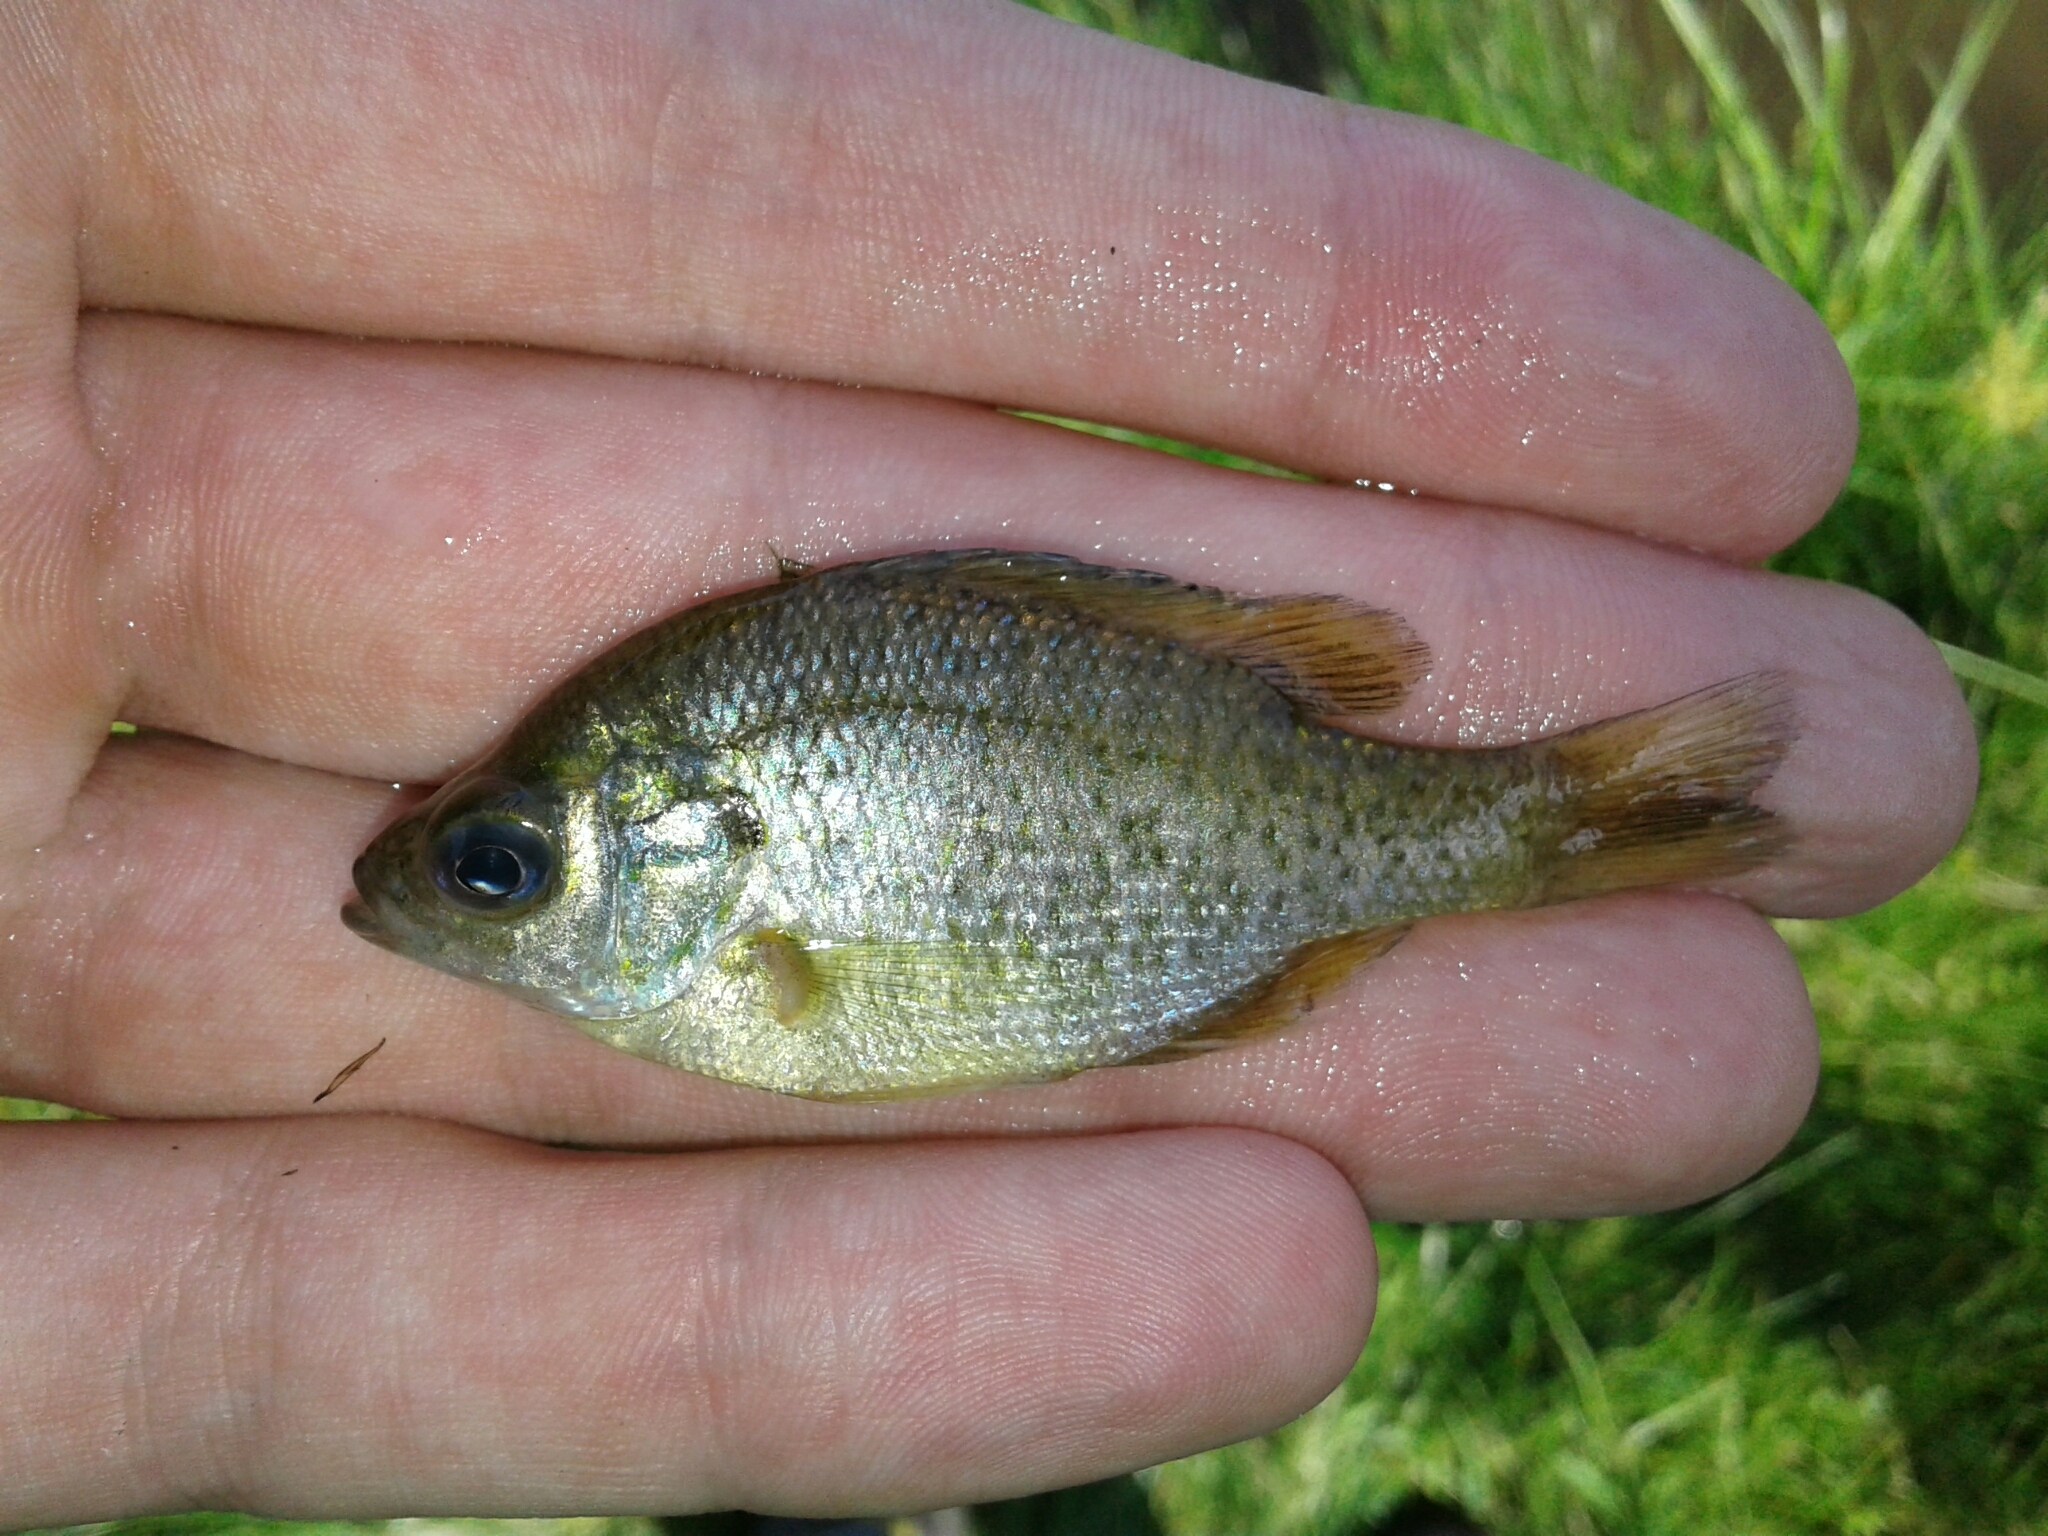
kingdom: Animalia
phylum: Chordata
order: Perciformes
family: Centrarchidae
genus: Lepomis
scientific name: Lepomis macrochirus
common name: Bluegill
